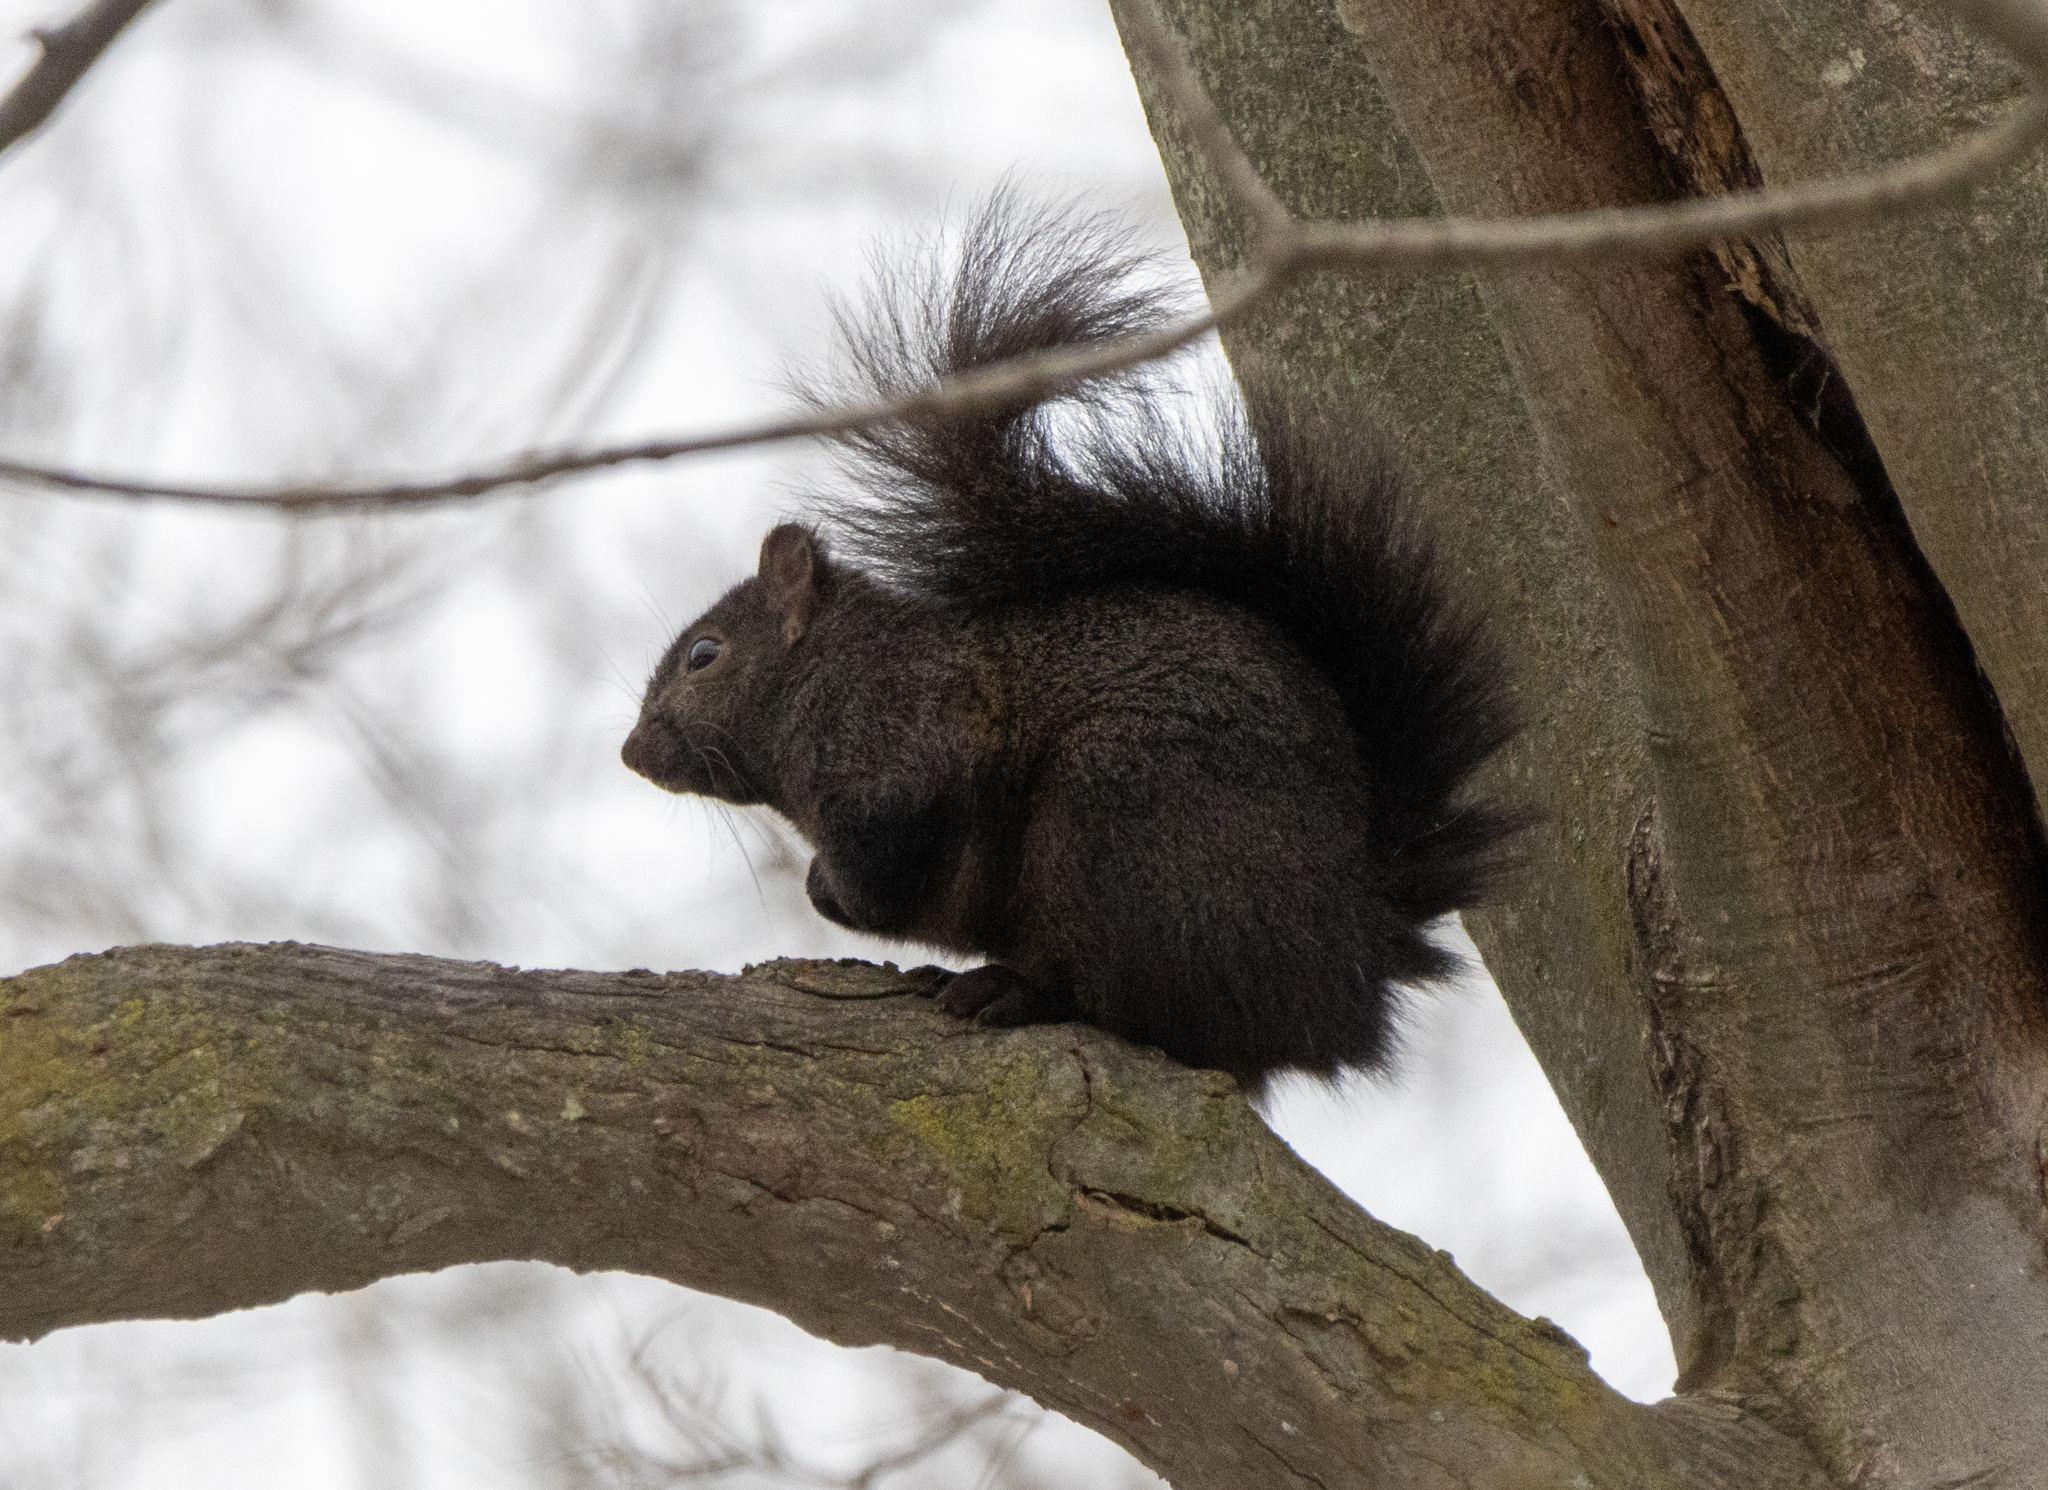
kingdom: Animalia
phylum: Chordata
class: Mammalia
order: Rodentia
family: Sciuridae
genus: Sciurus
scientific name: Sciurus carolinensis
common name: Eastern gray squirrel
